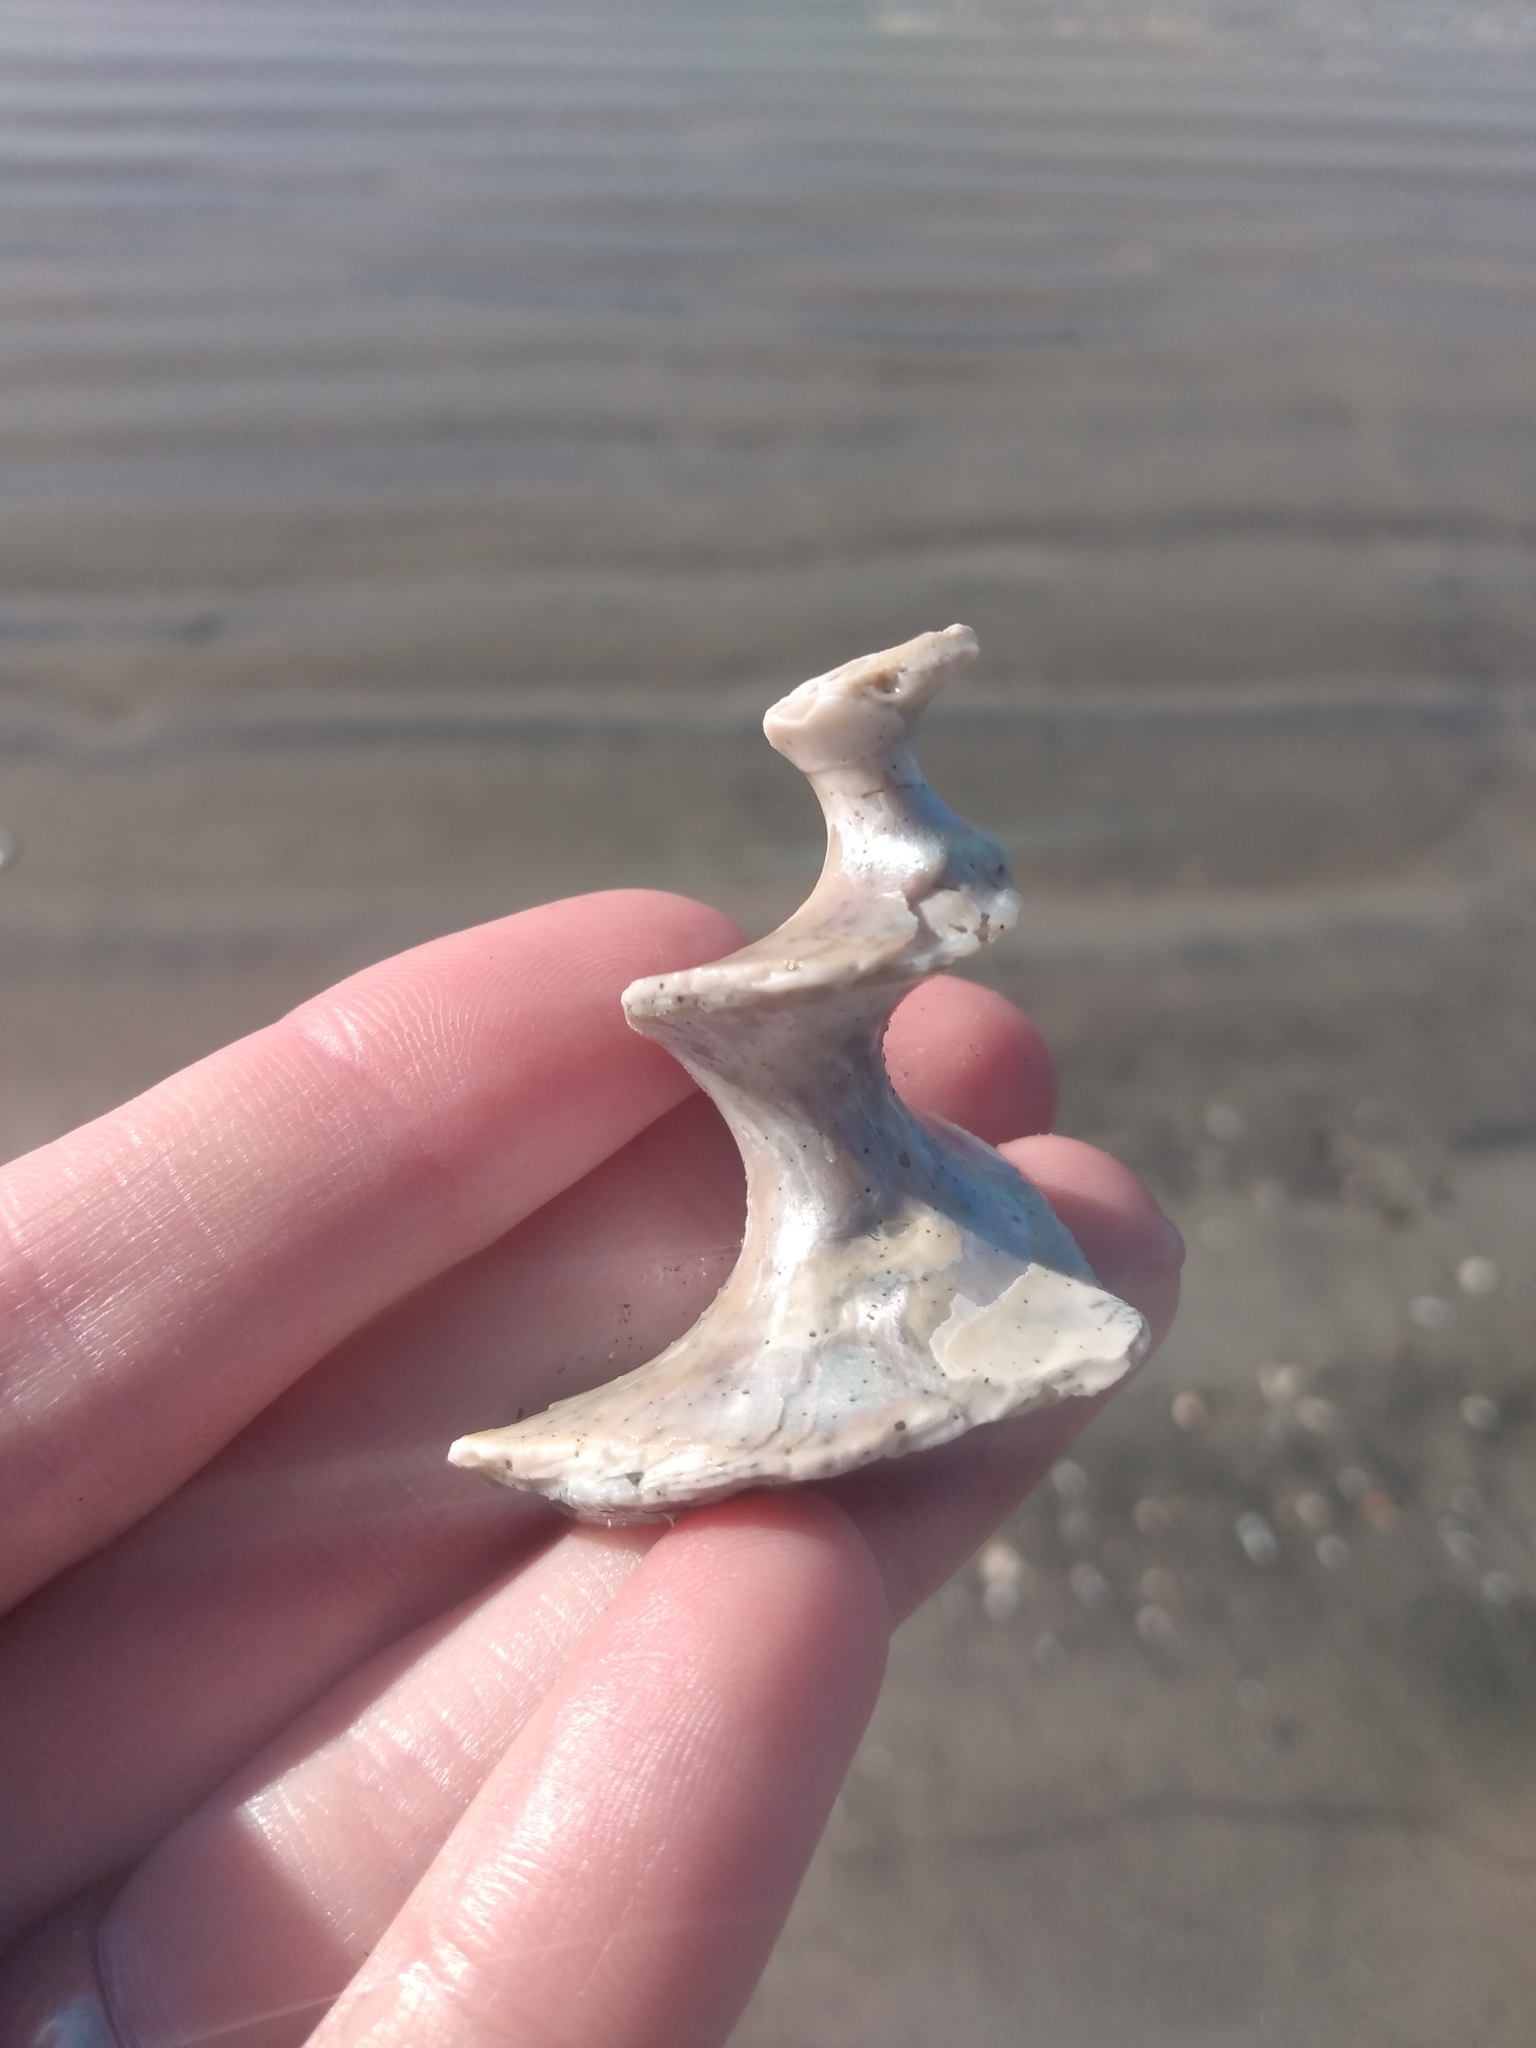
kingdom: Animalia
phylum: Mollusca
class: Gastropoda
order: Trochida
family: Turbinidae
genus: Megastraea
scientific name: Megastraea undosa
